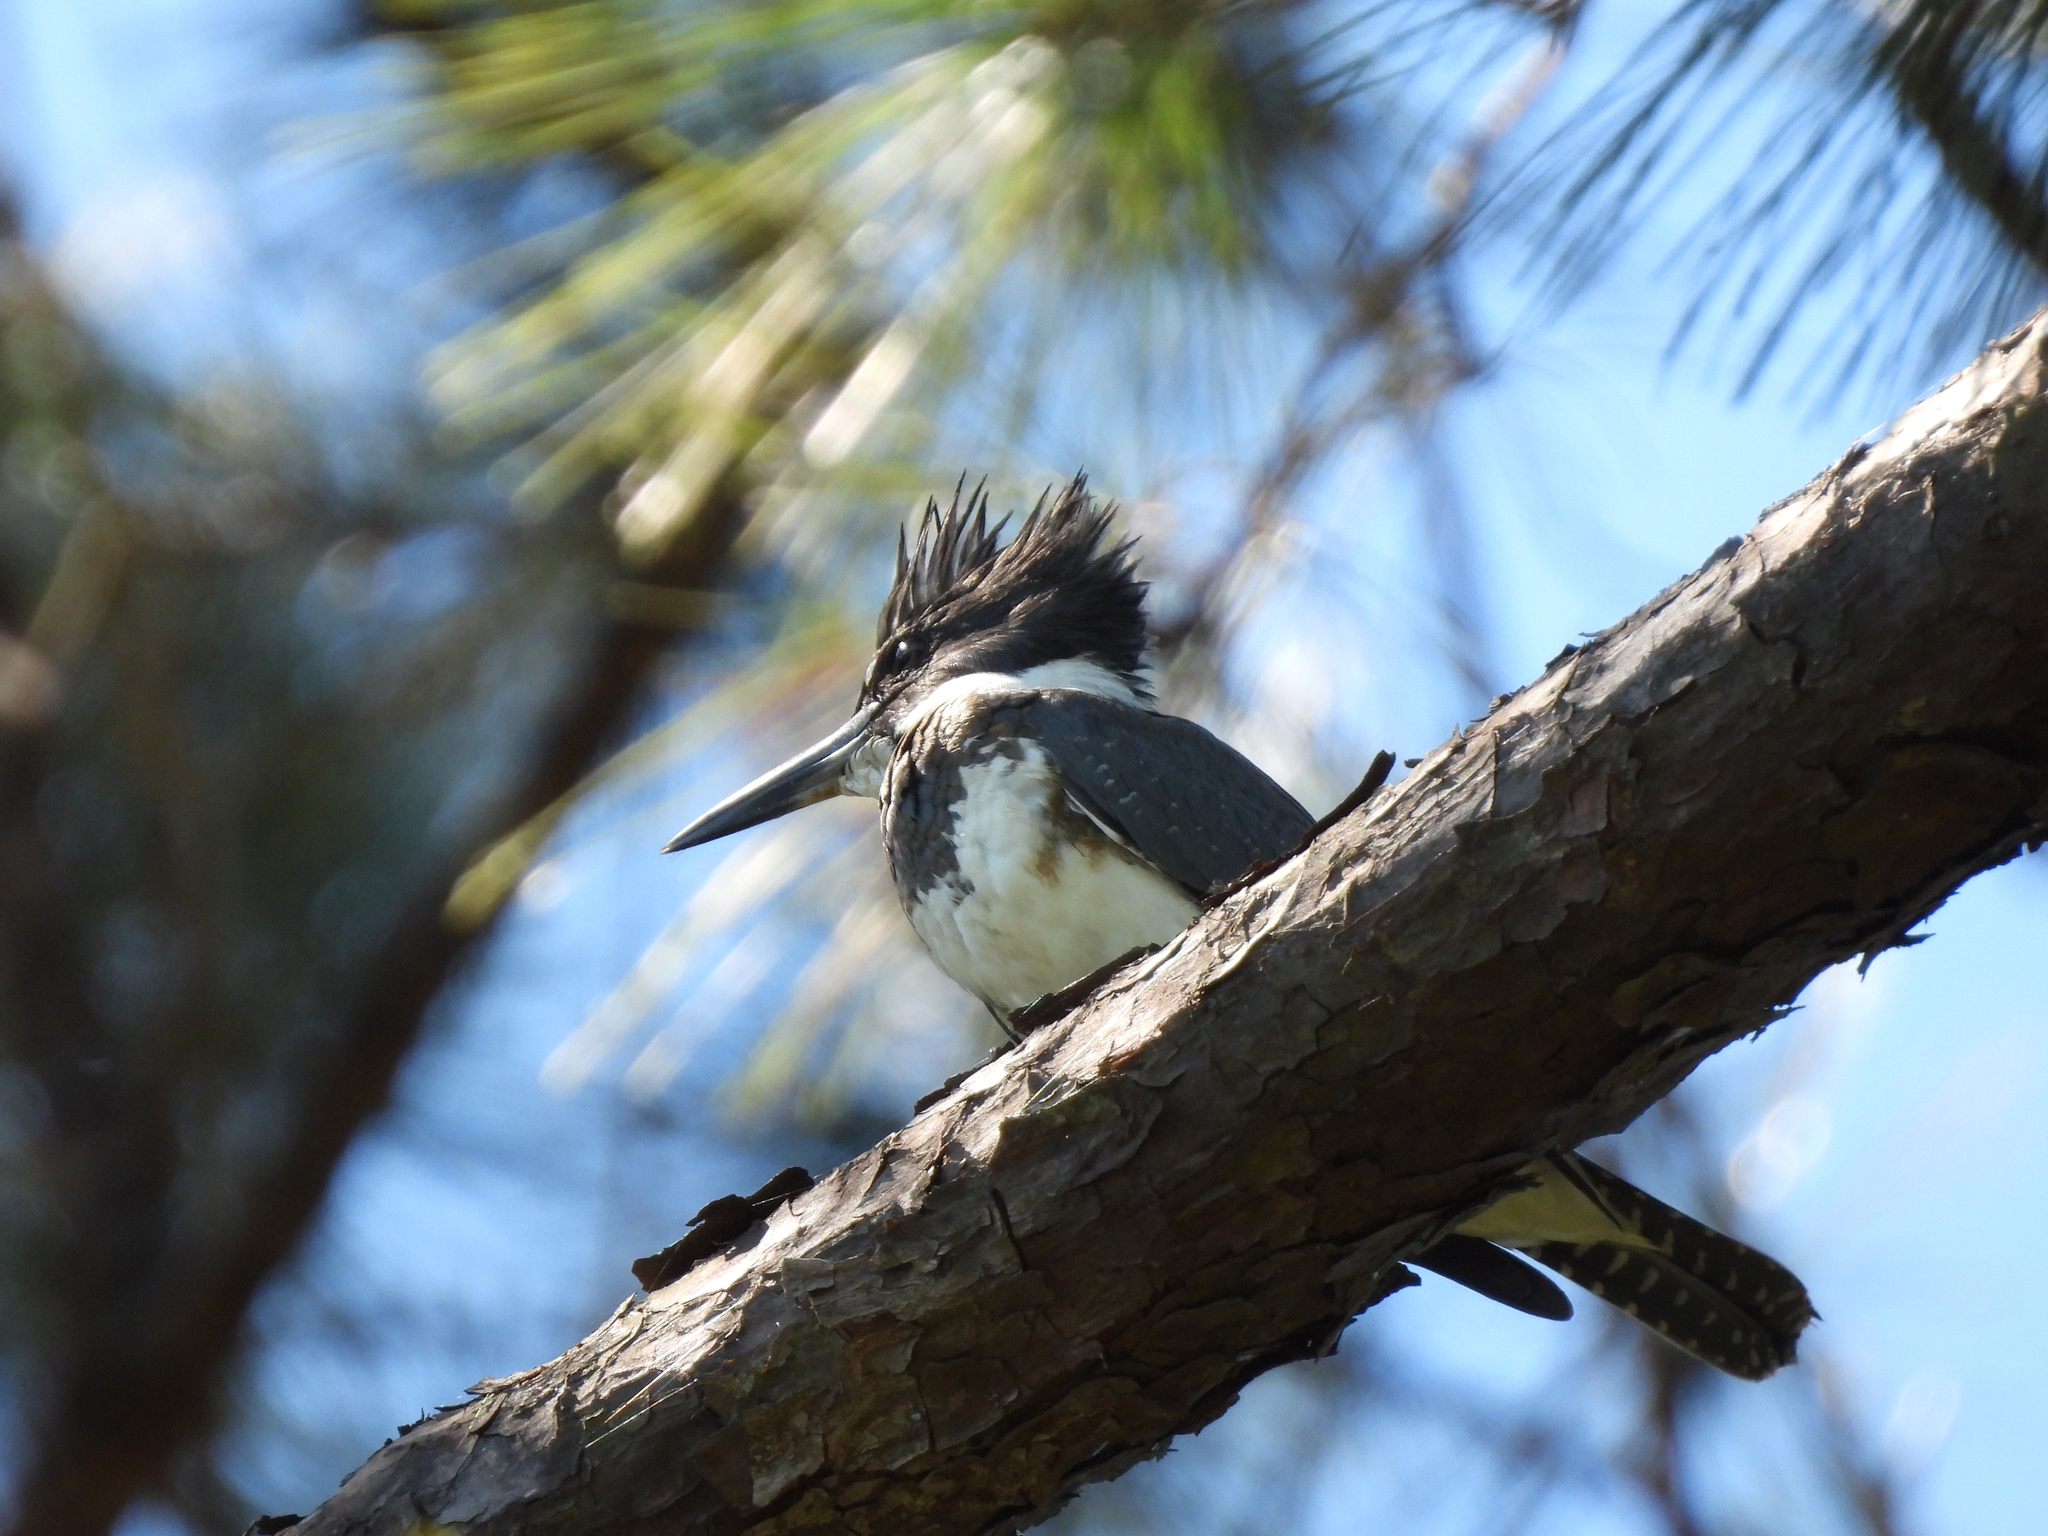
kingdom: Animalia
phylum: Chordata
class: Aves
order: Coraciiformes
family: Alcedinidae
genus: Megaceryle
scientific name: Megaceryle alcyon
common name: Belted kingfisher
